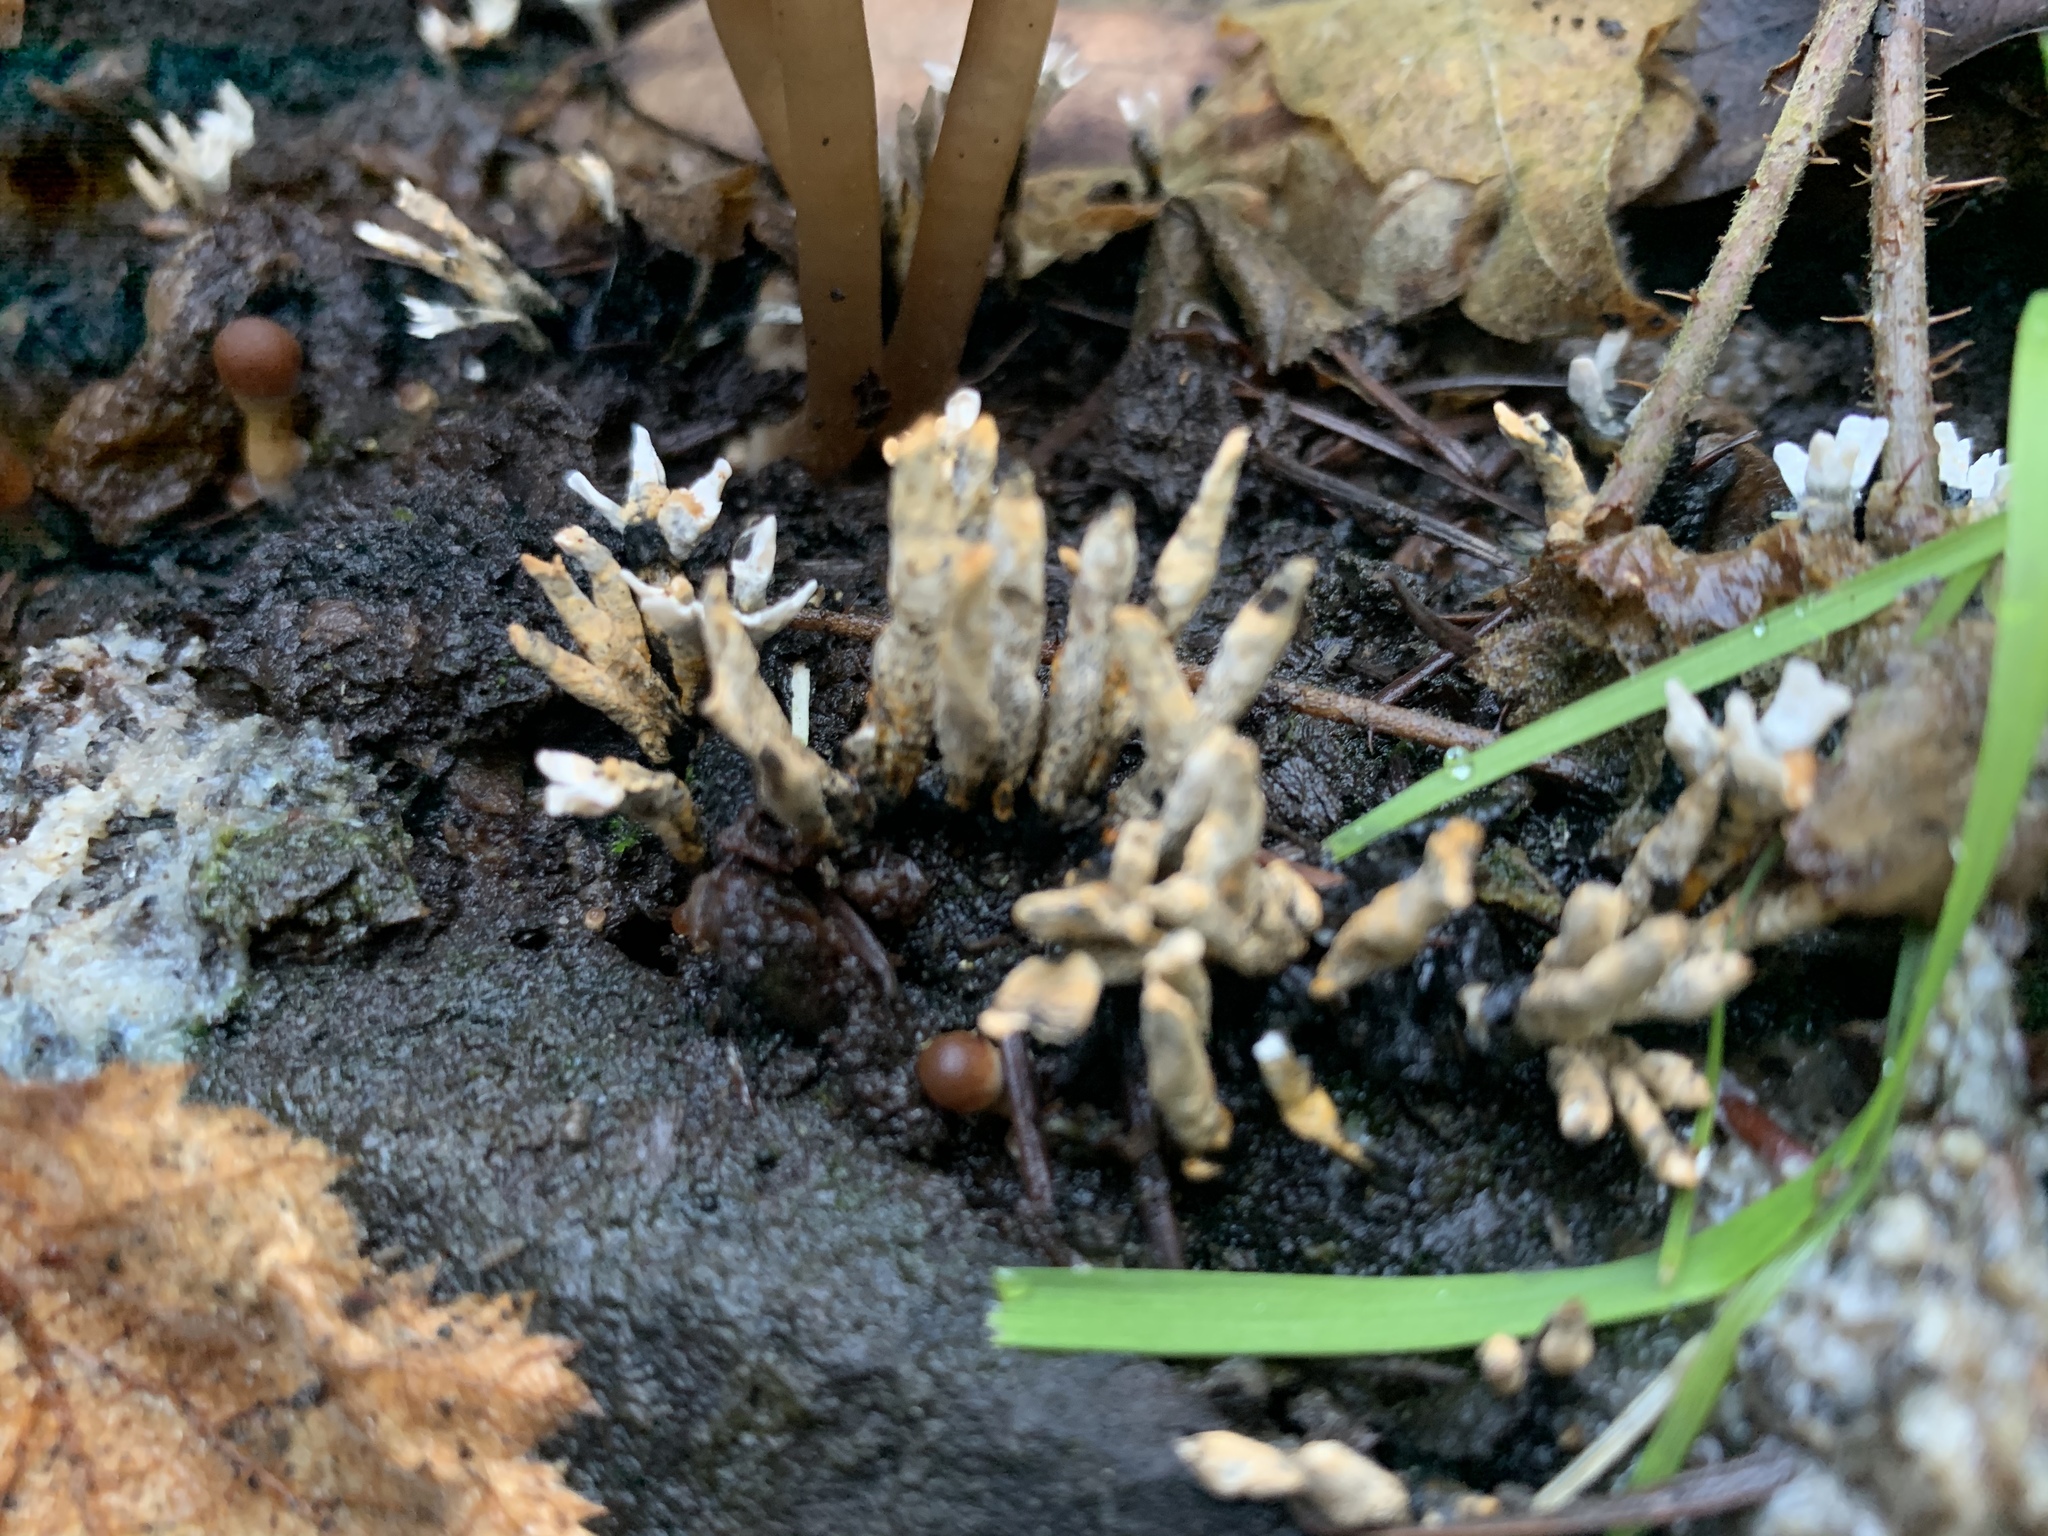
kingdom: Fungi
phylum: Ascomycota
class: Sordariomycetes
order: Xylariales
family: Xylariaceae
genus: Xylaria
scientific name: Xylaria hypoxylon
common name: Candle-snuff fungus
